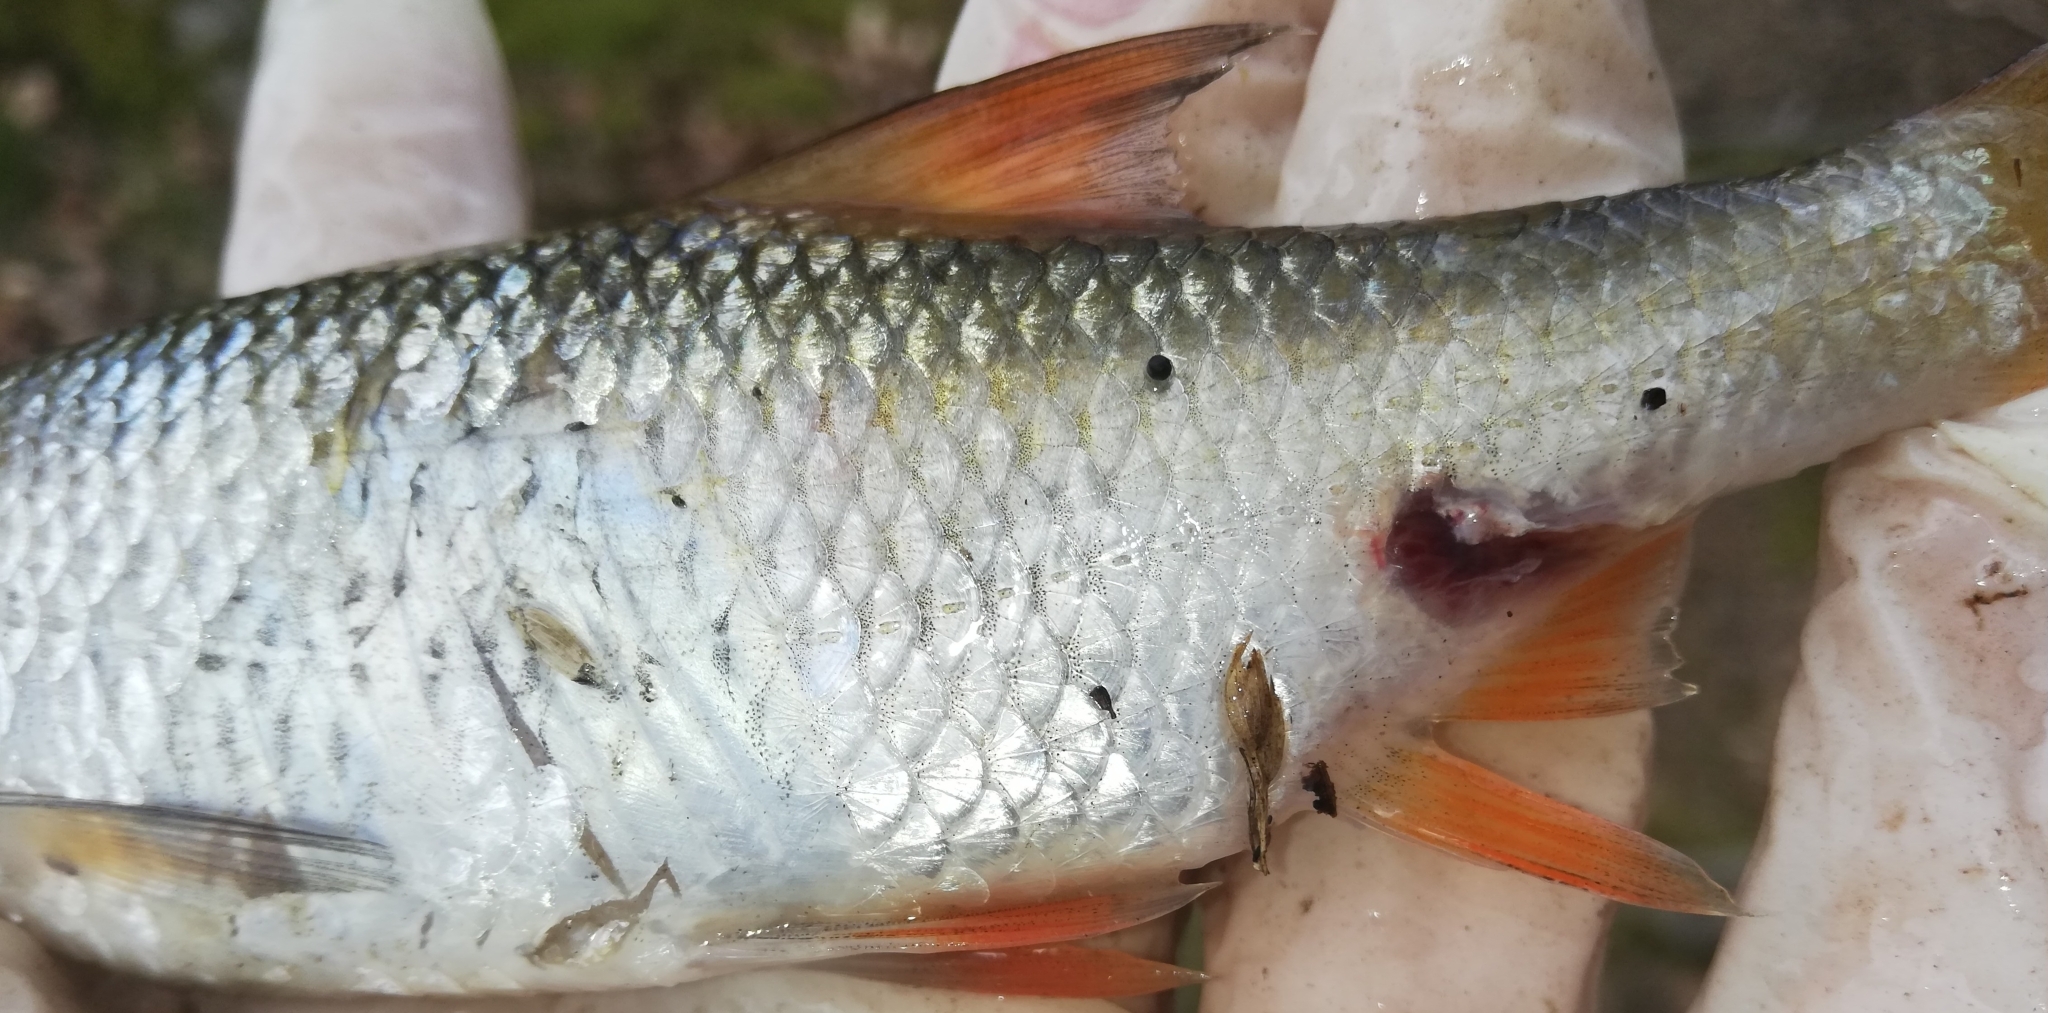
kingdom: Animalia
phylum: Chordata
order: Cypriniformes
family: Cyprinidae
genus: Rutilus
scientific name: Rutilus rutilus
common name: Roach
